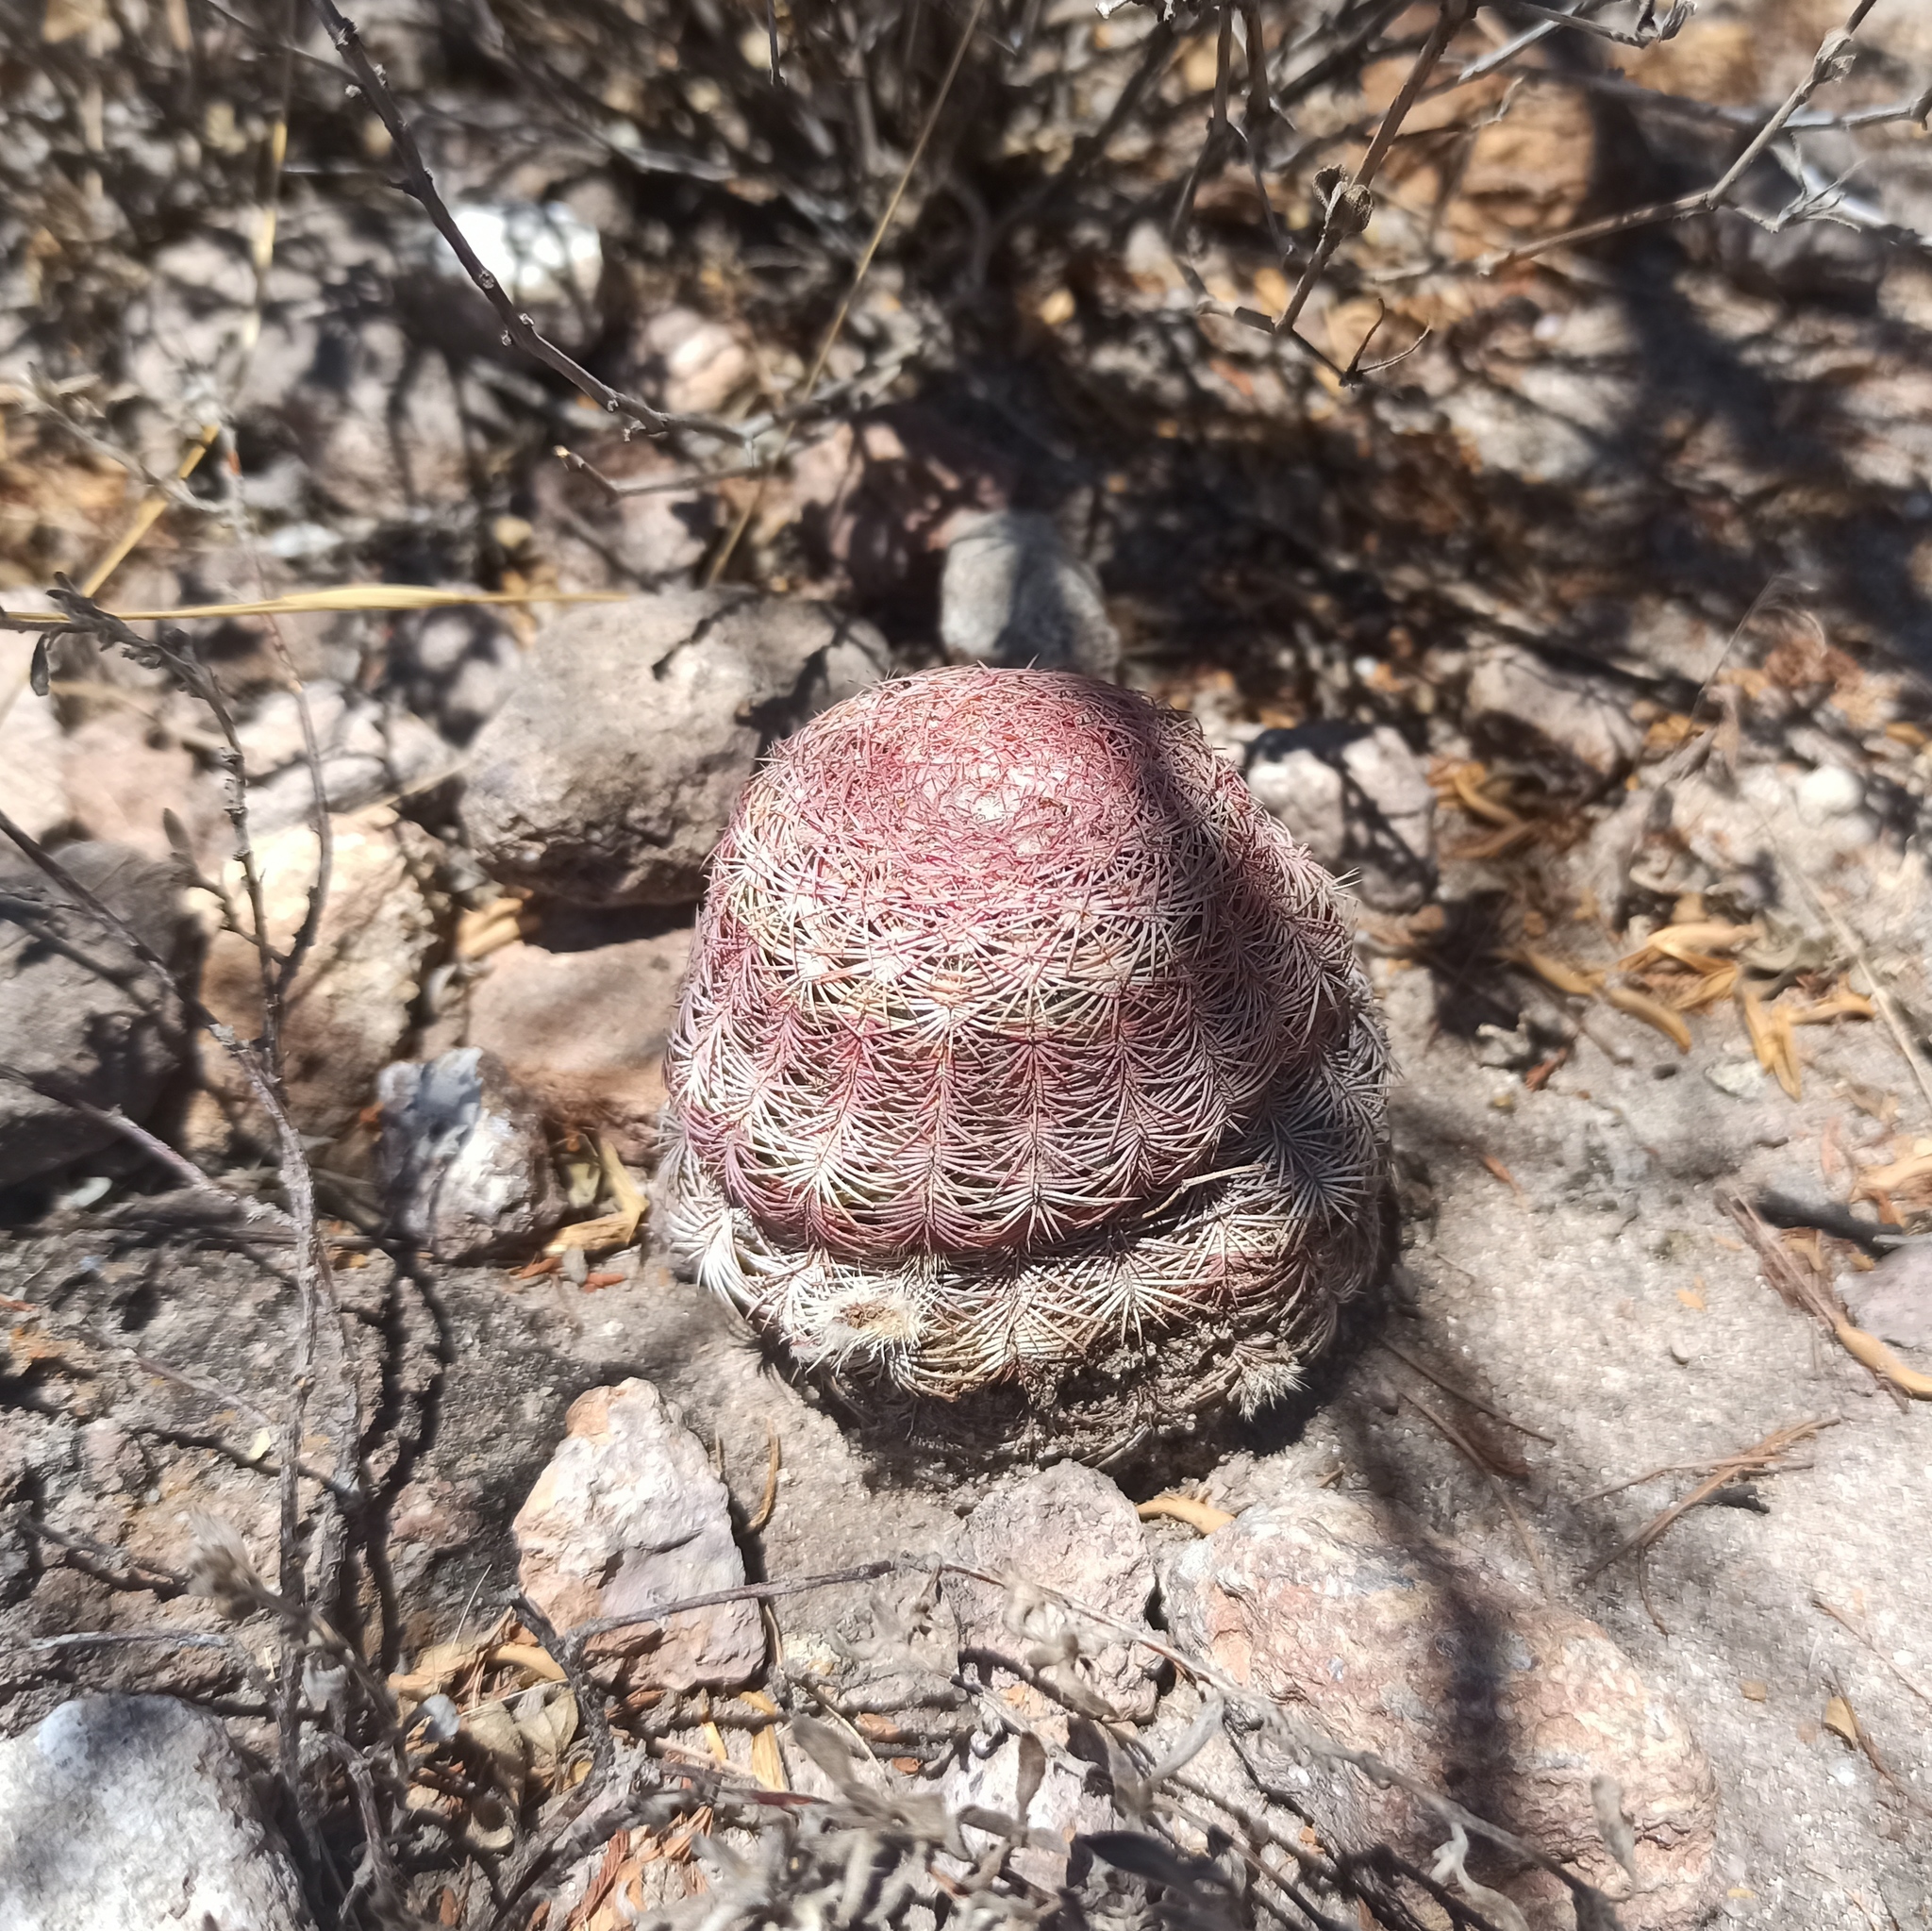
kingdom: Plantae
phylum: Tracheophyta
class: Magnoliopsida
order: Caryophyllales
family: Cactaceae
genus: Echinocereus
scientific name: Echinocereus pectinatus
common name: Rainbow cactus
